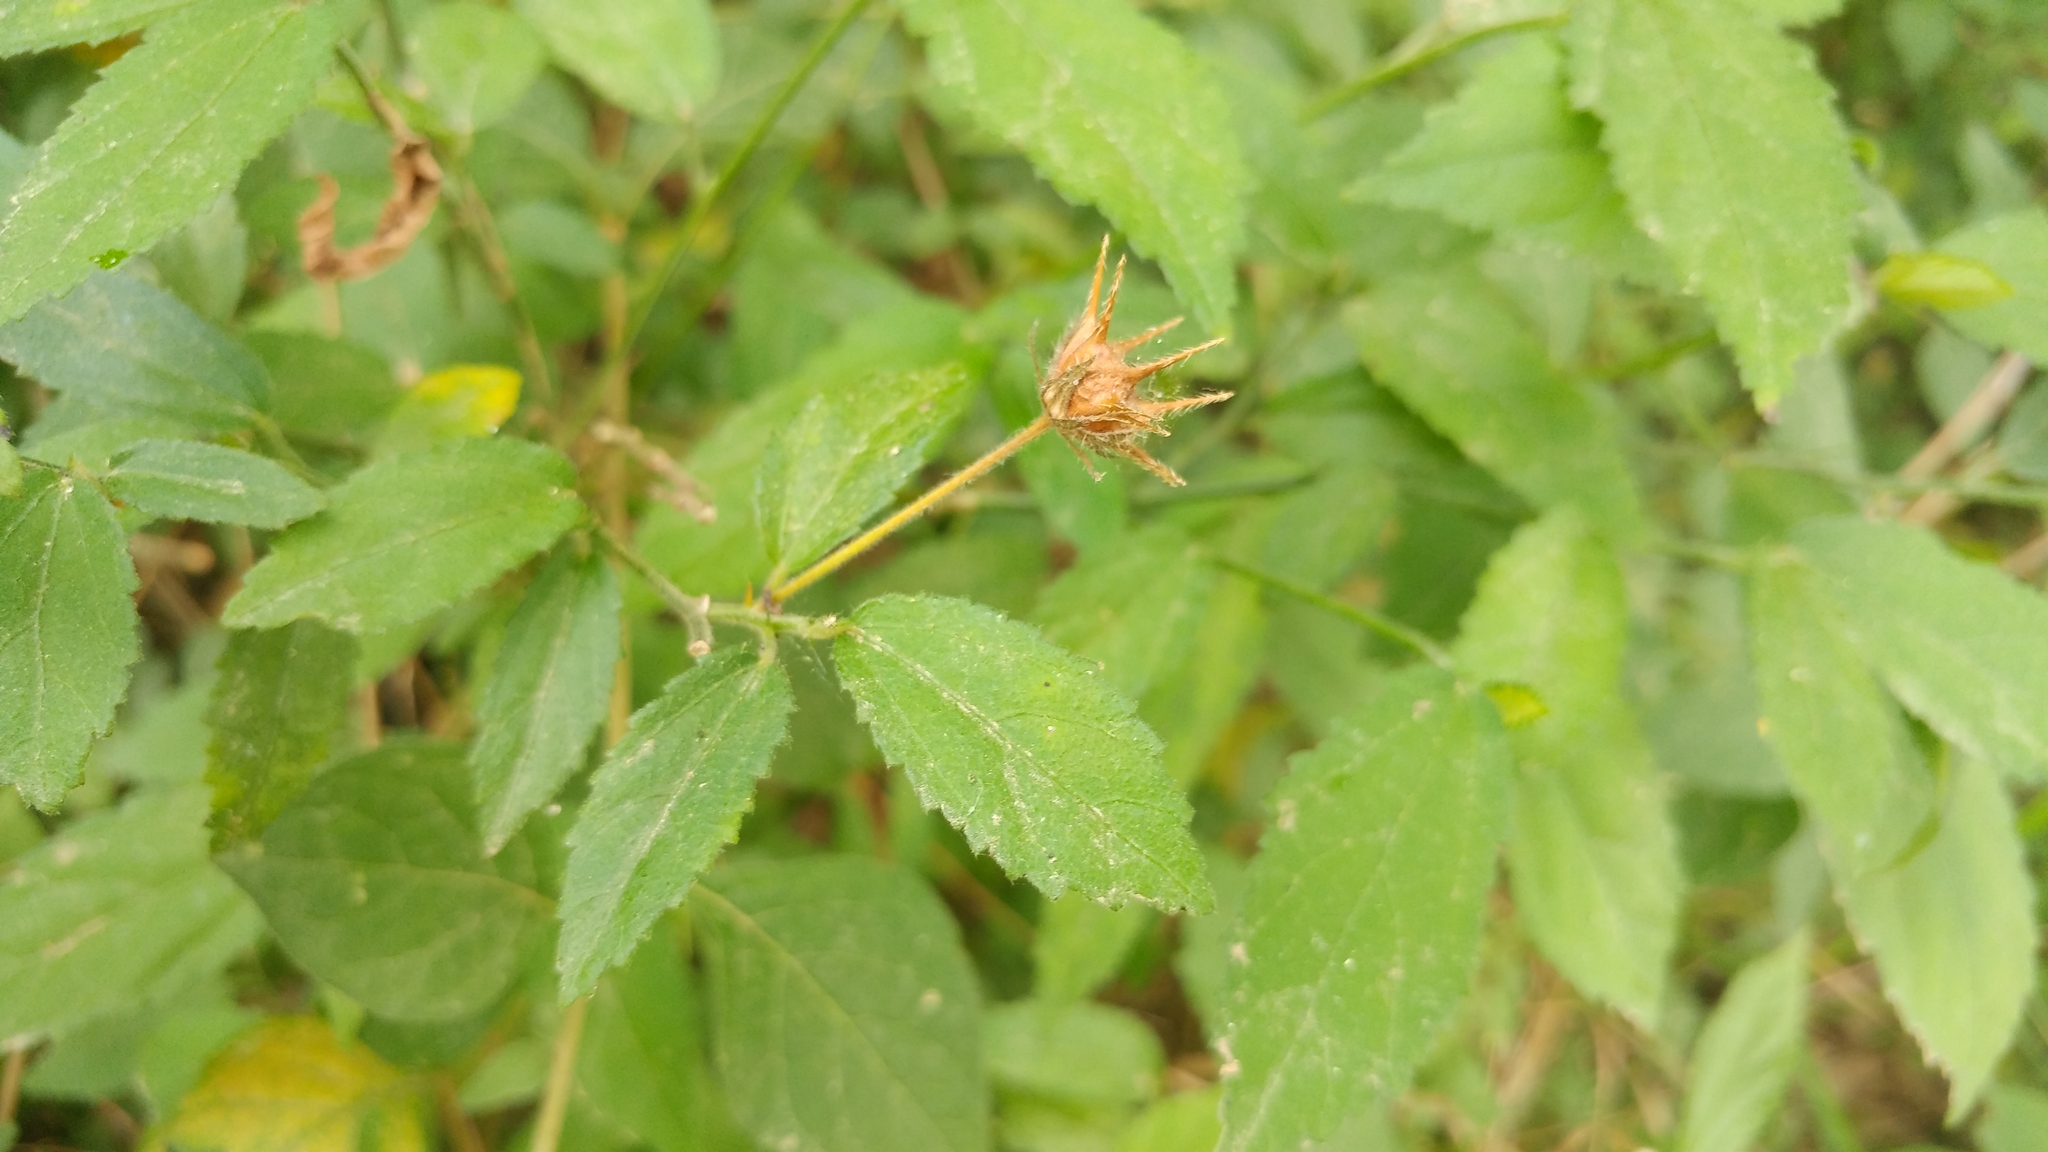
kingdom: Plantae
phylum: Tracheophyta
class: Magnoliopsida
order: Malvales
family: Malvaceae
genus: Pavonia
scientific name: Pavonia uniflora
